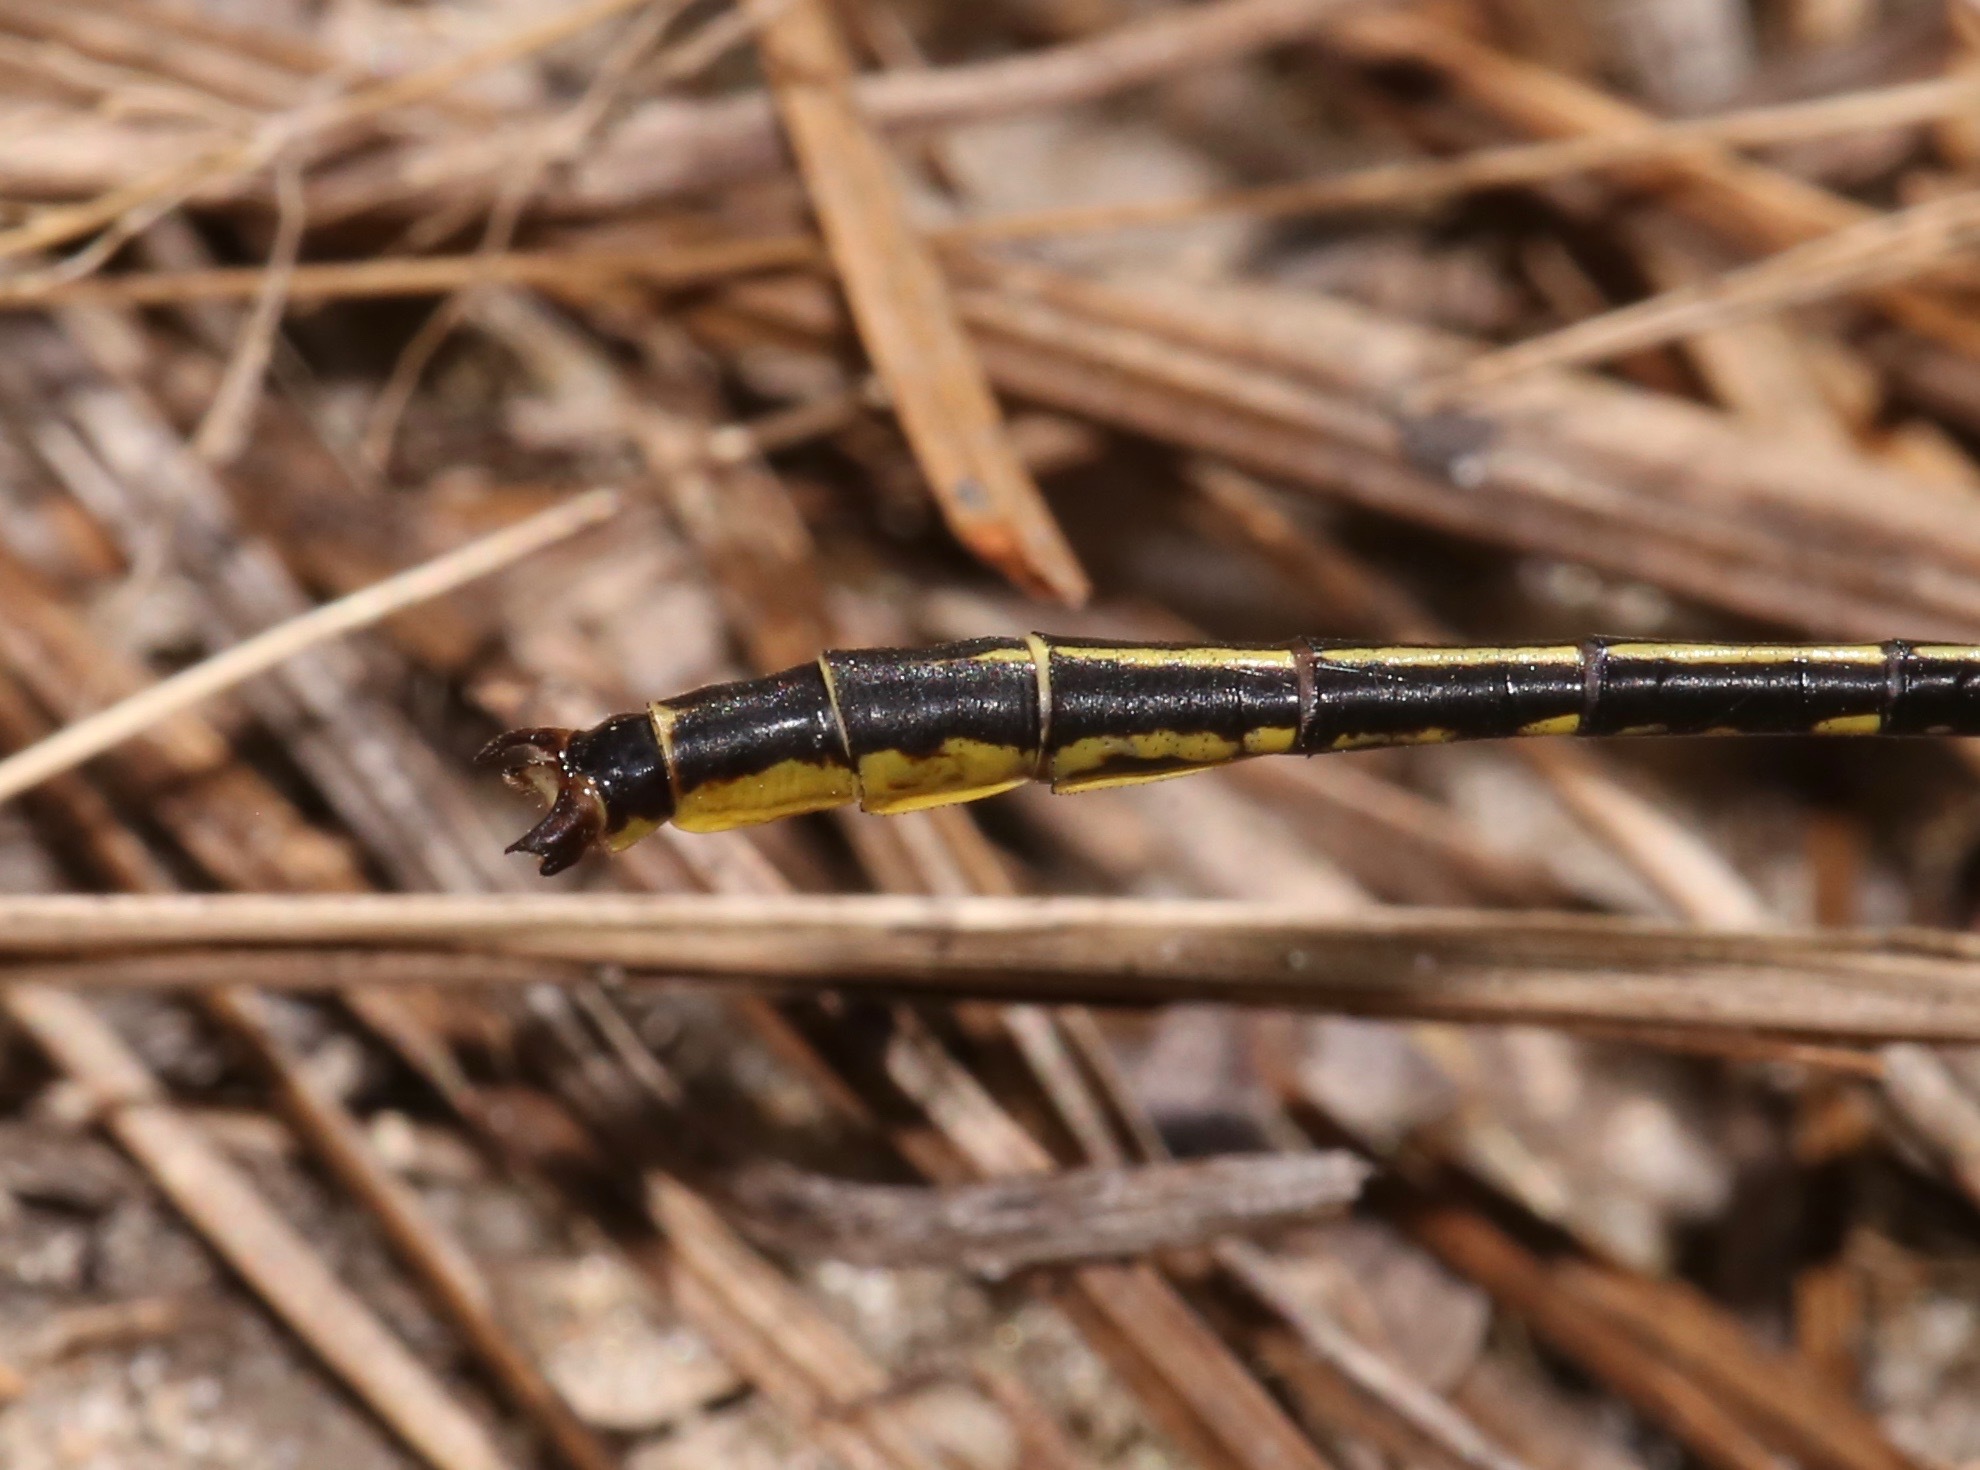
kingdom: Animalia
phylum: Arthropoda
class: Insecta
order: Odonata
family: Gomphidae
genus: Phanogomphus
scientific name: Phanogomphus hodgesi
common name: Hodges' clubtail
